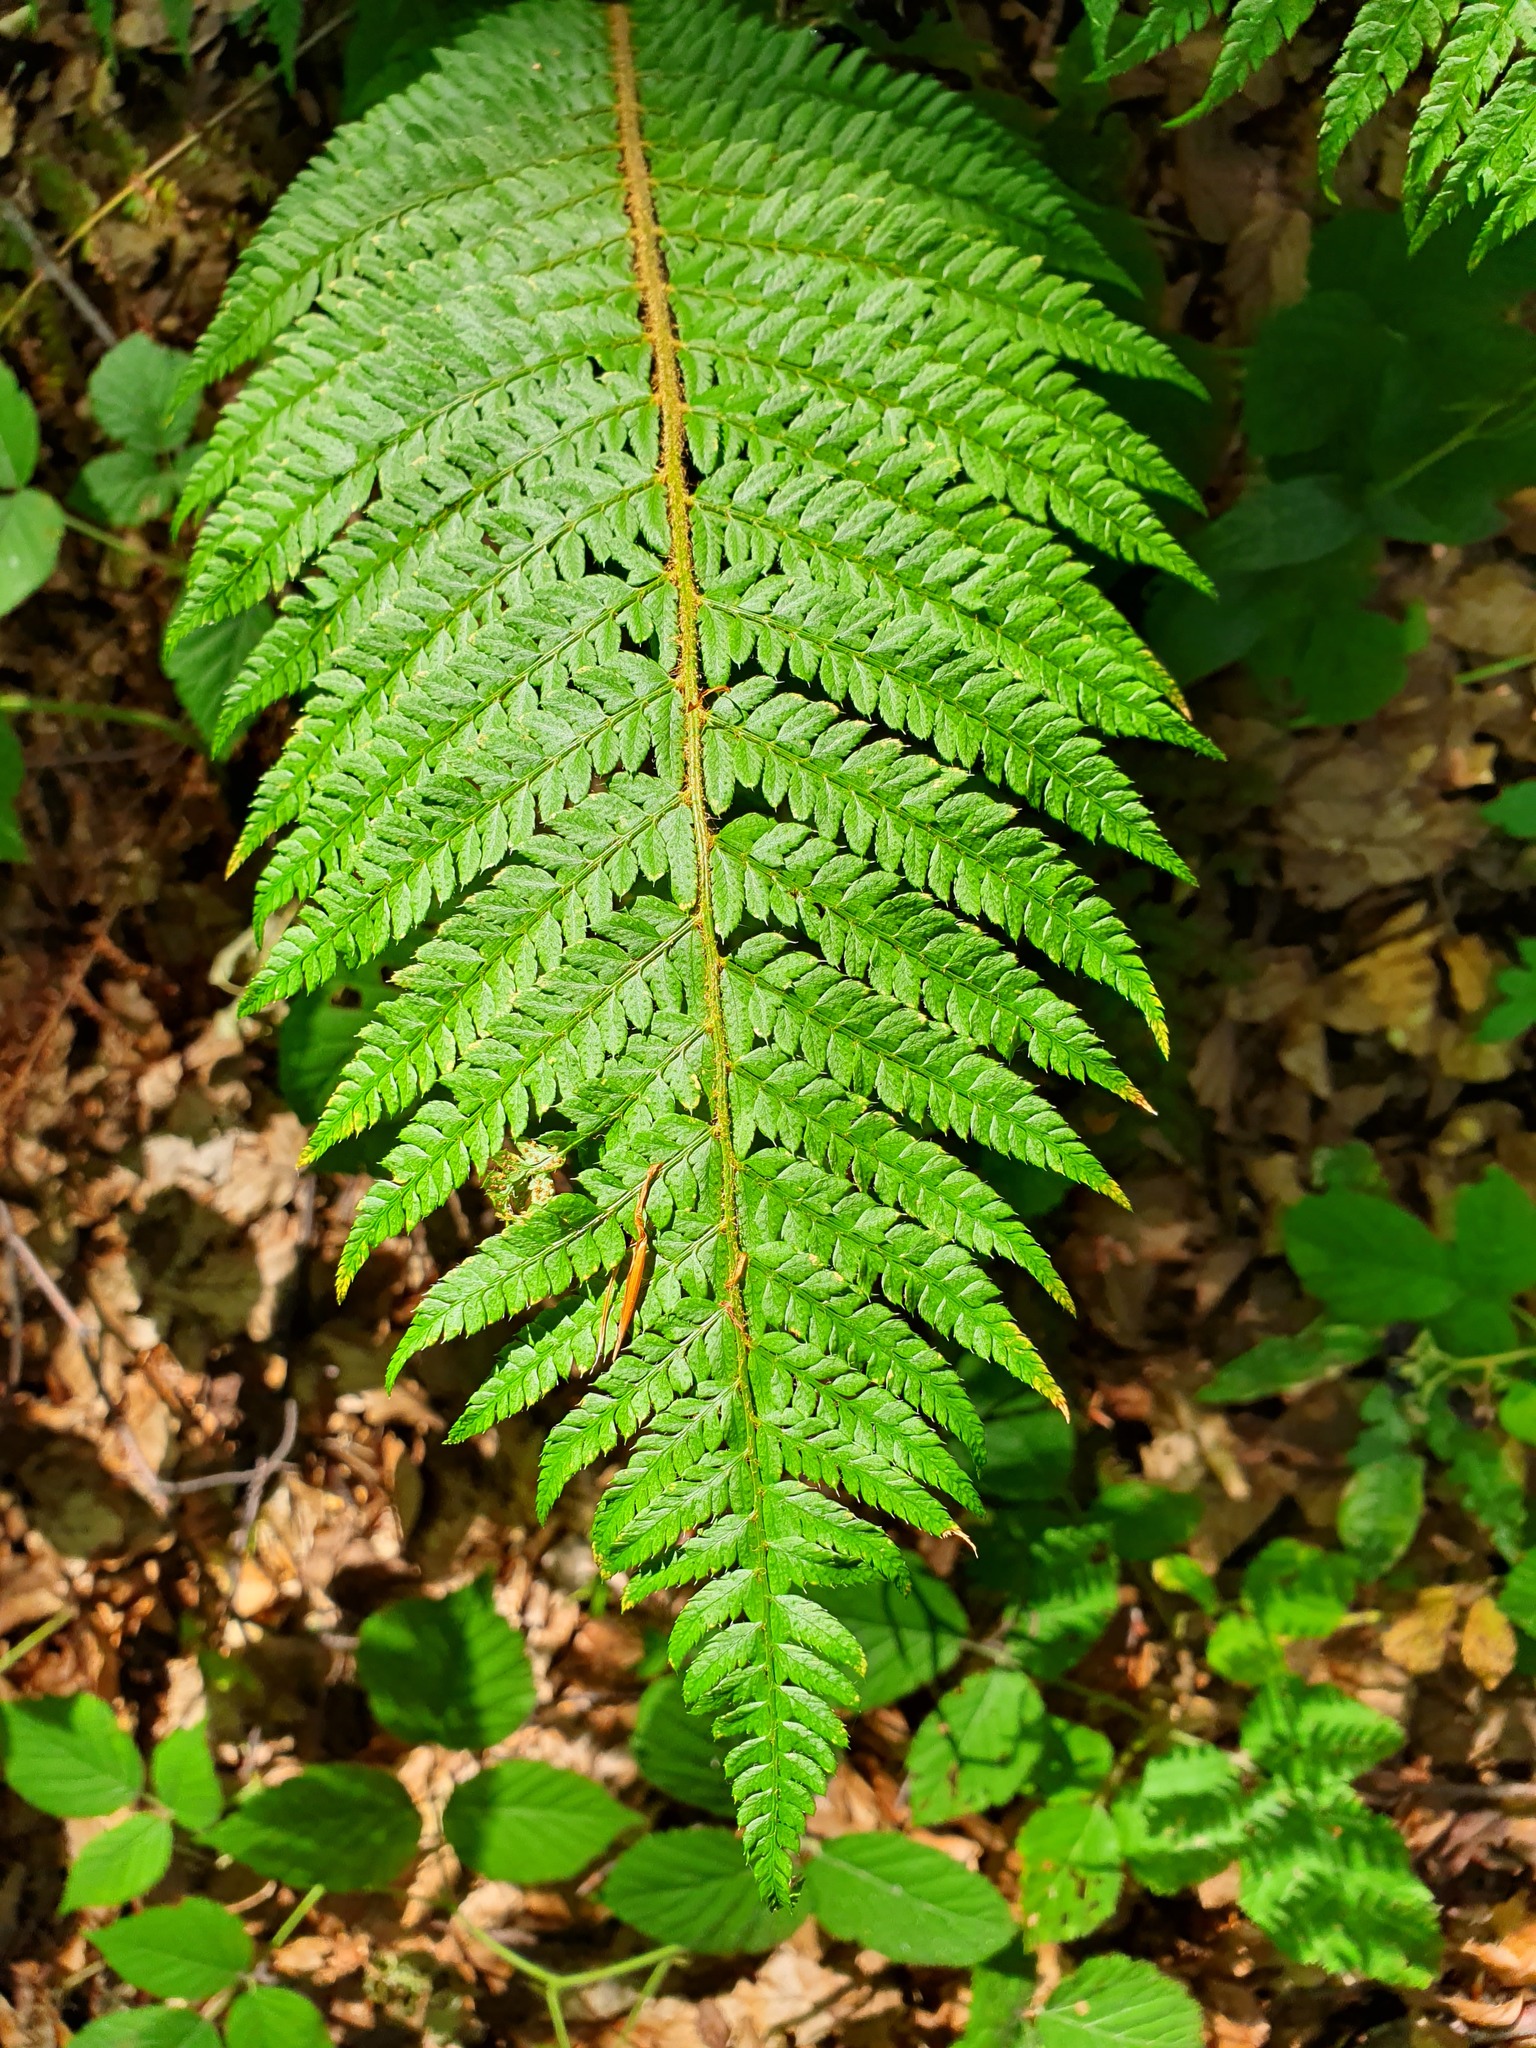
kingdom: Plantae
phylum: Tracheophyta
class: Polypodiopsida
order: Polypodiales
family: Dryopteridaceae
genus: Polystichum
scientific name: Polystichum setiferum
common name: Soft shield-fern
